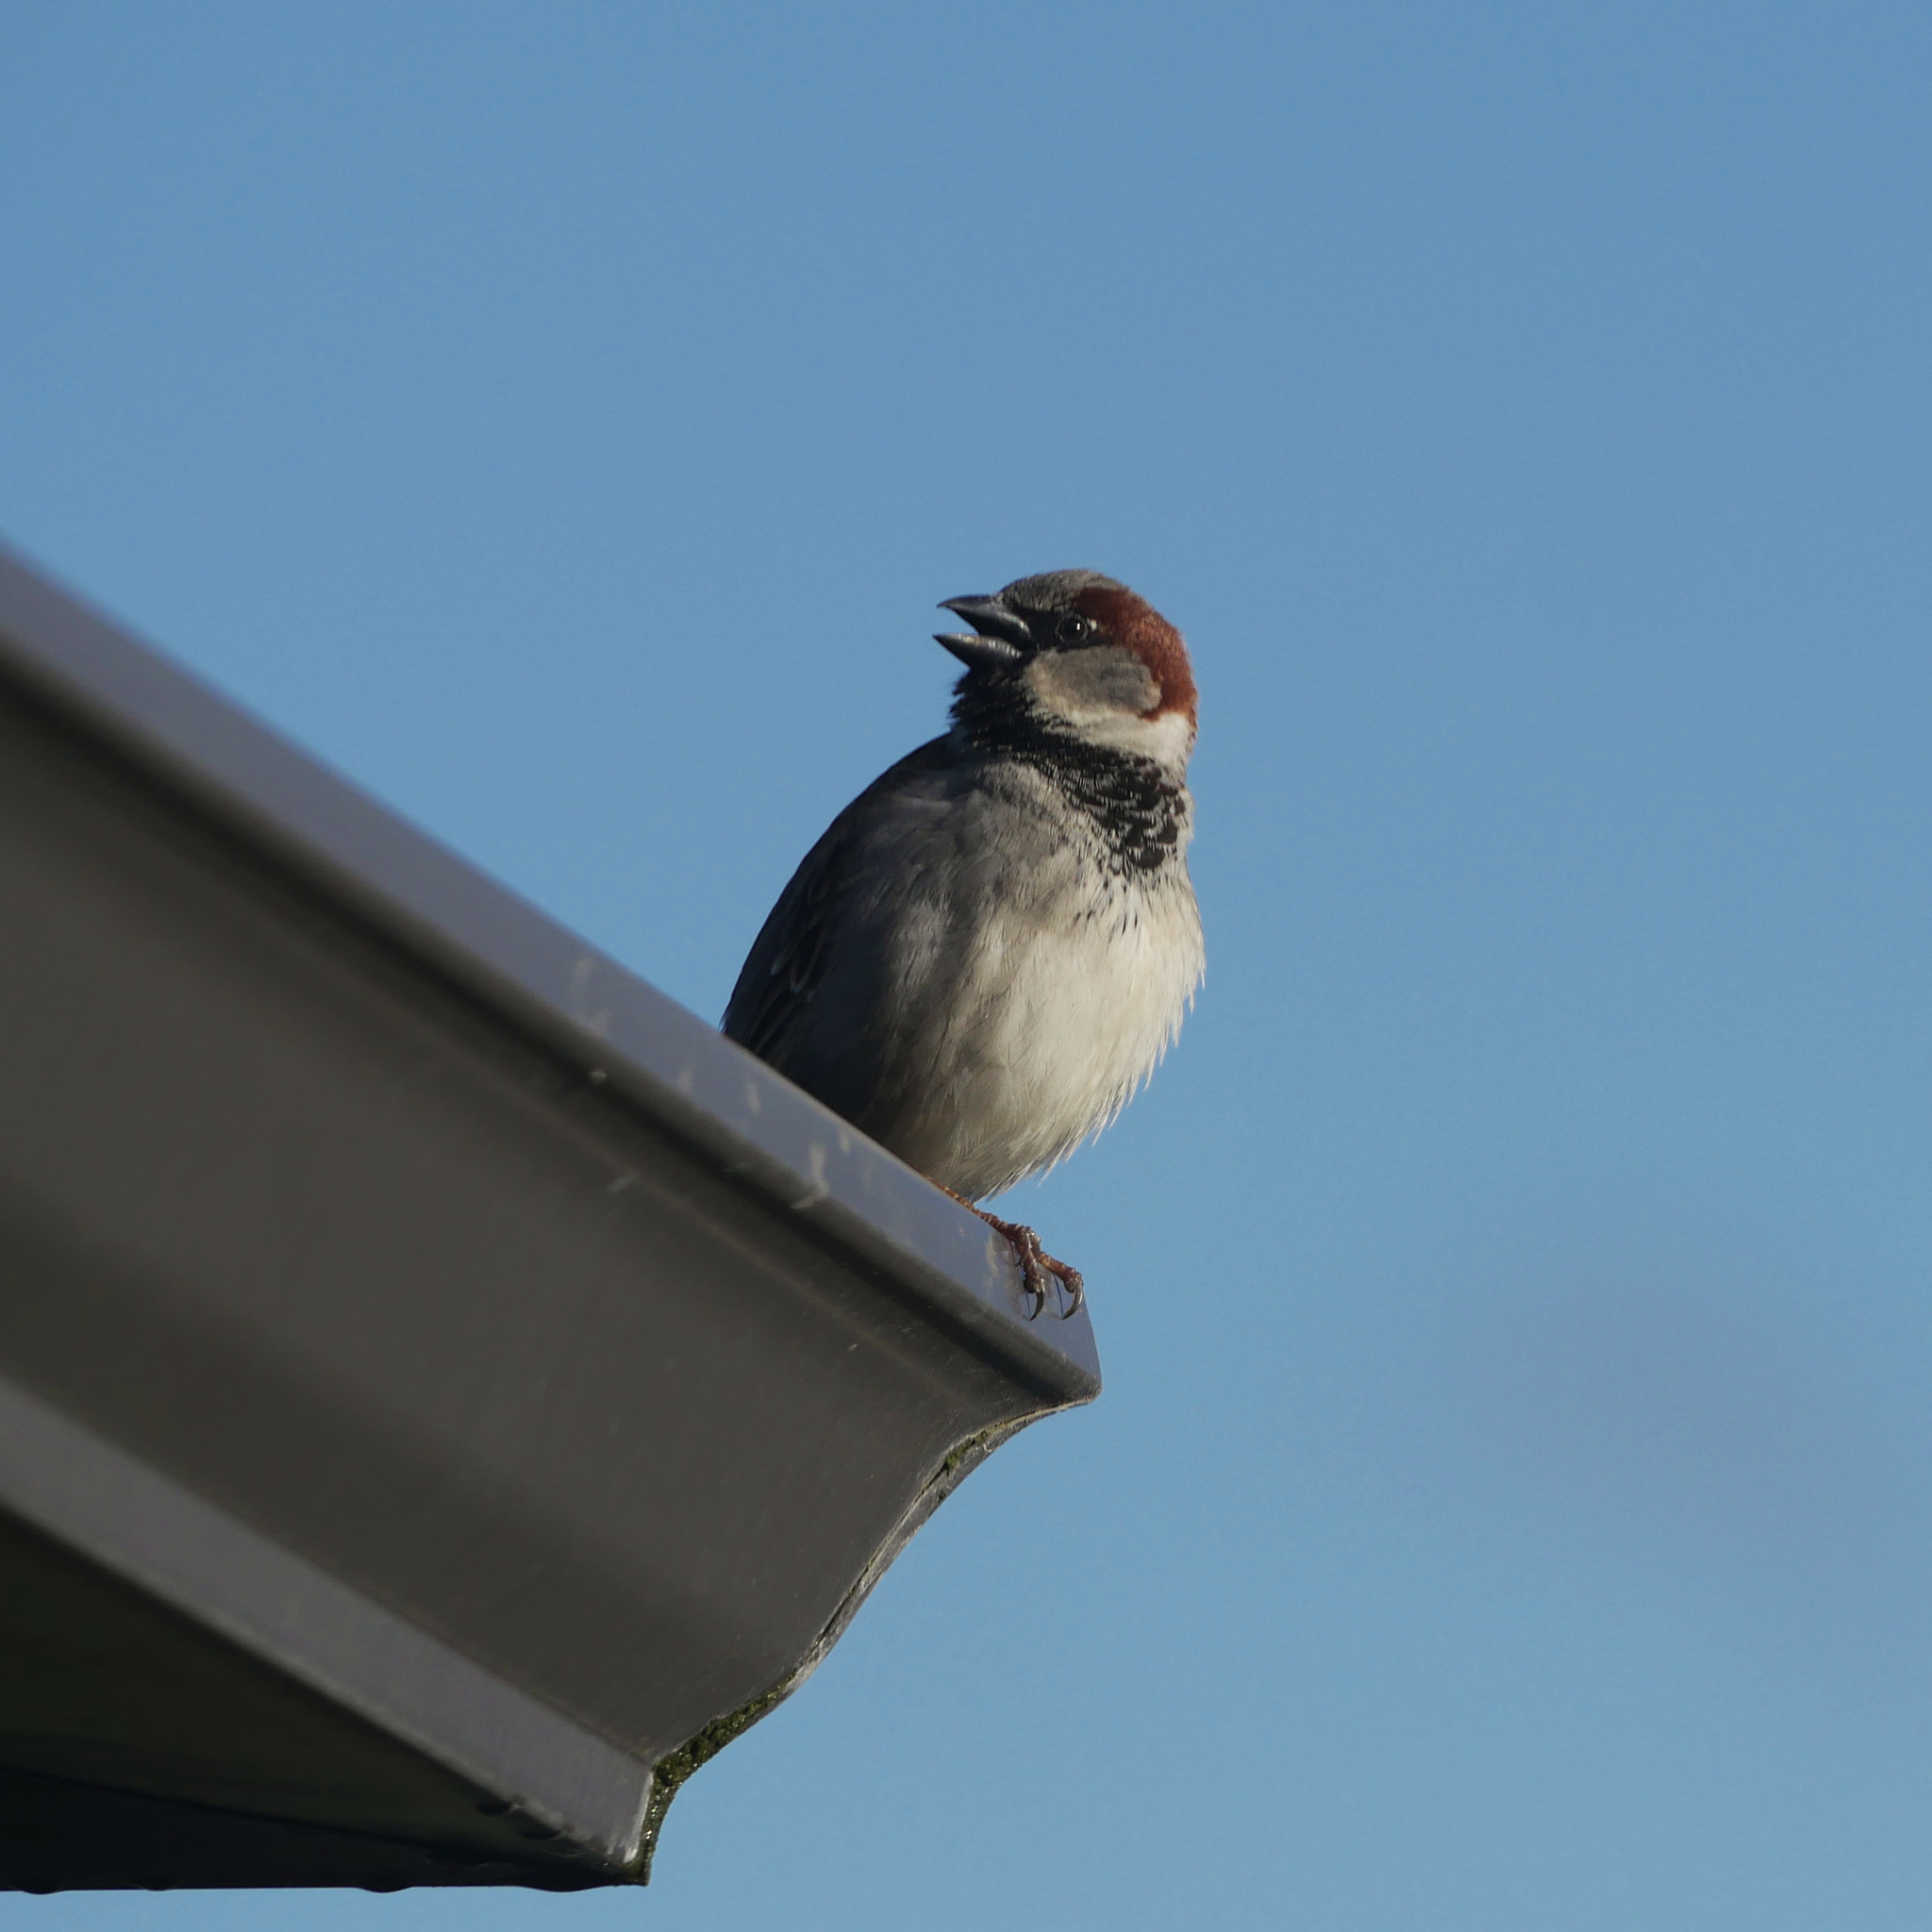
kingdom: Animalia
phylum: Chordata
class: Aves
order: Passeriformes
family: Passeridae
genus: Passer
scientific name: Passer domesticus
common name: House sparrow
